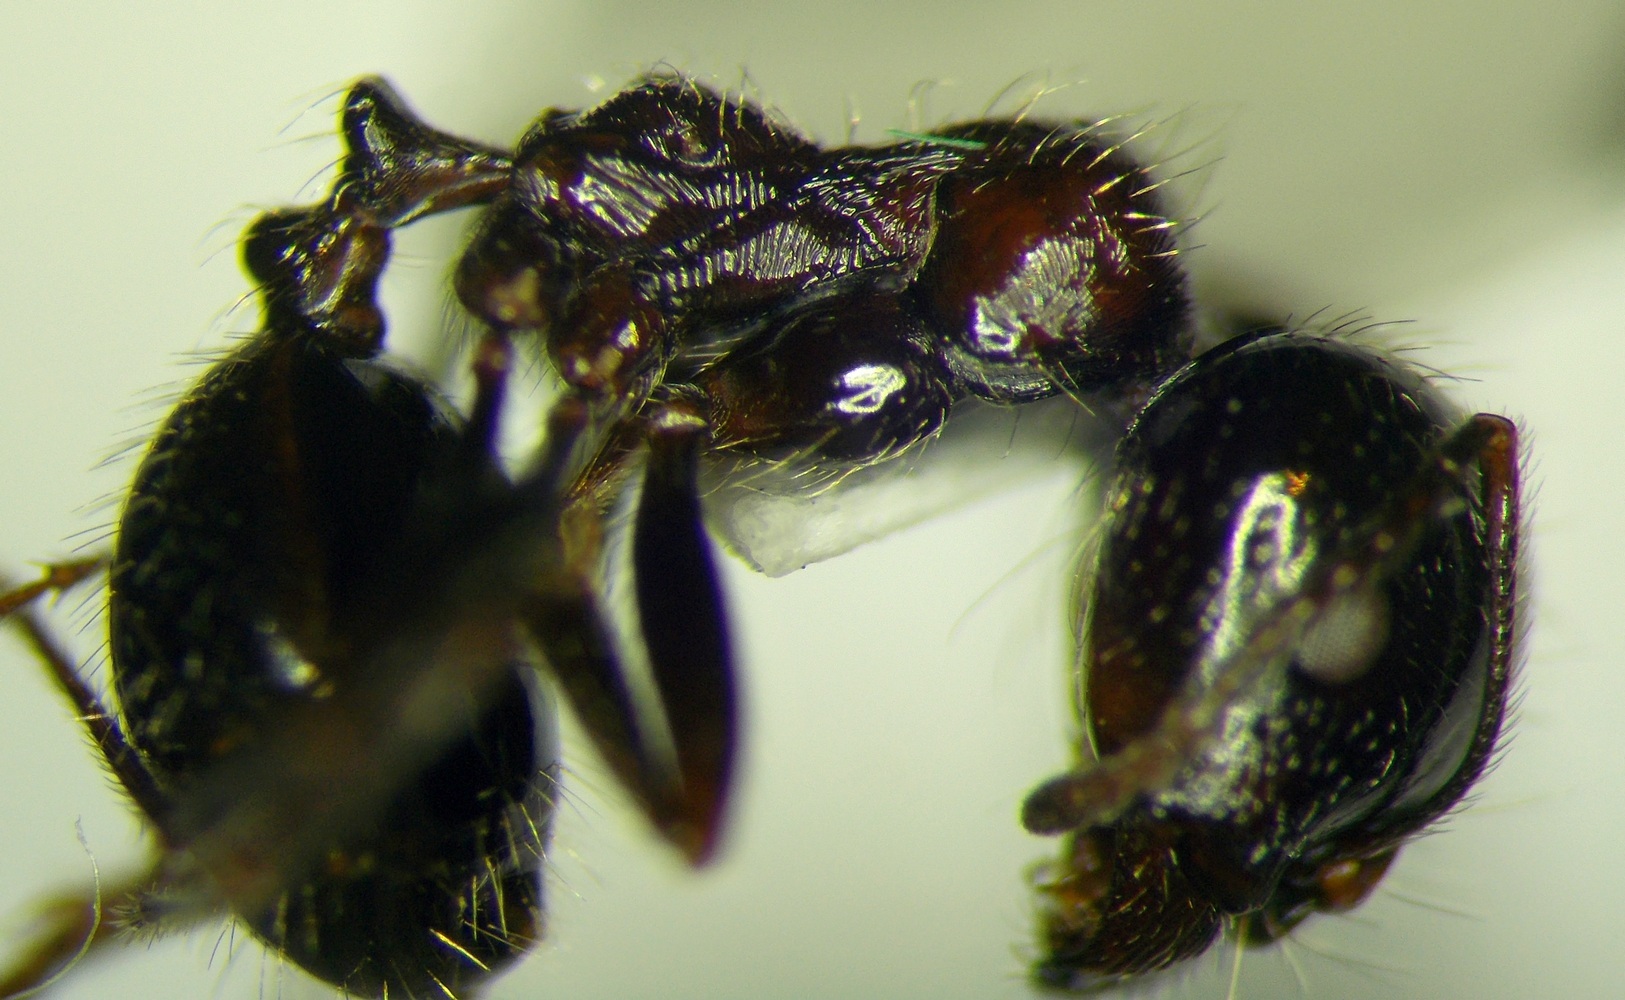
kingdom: Animalia
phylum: Arthropoda
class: Insecta
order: Hymenoptera
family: Formicidae
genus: Messor
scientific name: Messor
